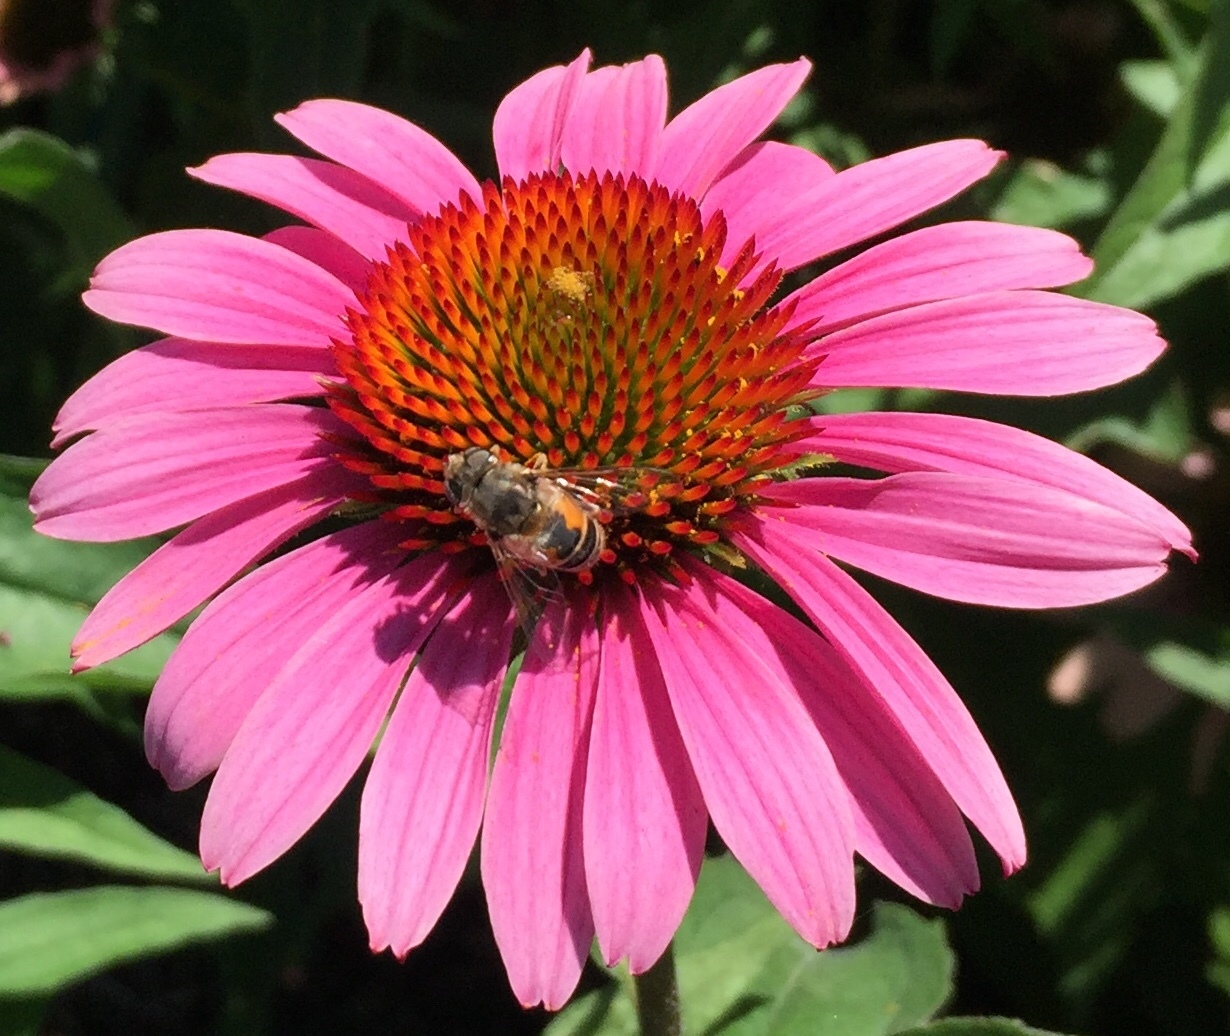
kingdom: Animalia
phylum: Arthropoda
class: Insecta
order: Diptera
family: Syrphidae
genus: Eristalis
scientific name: Eristalis arbustorum
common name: Hover fly
